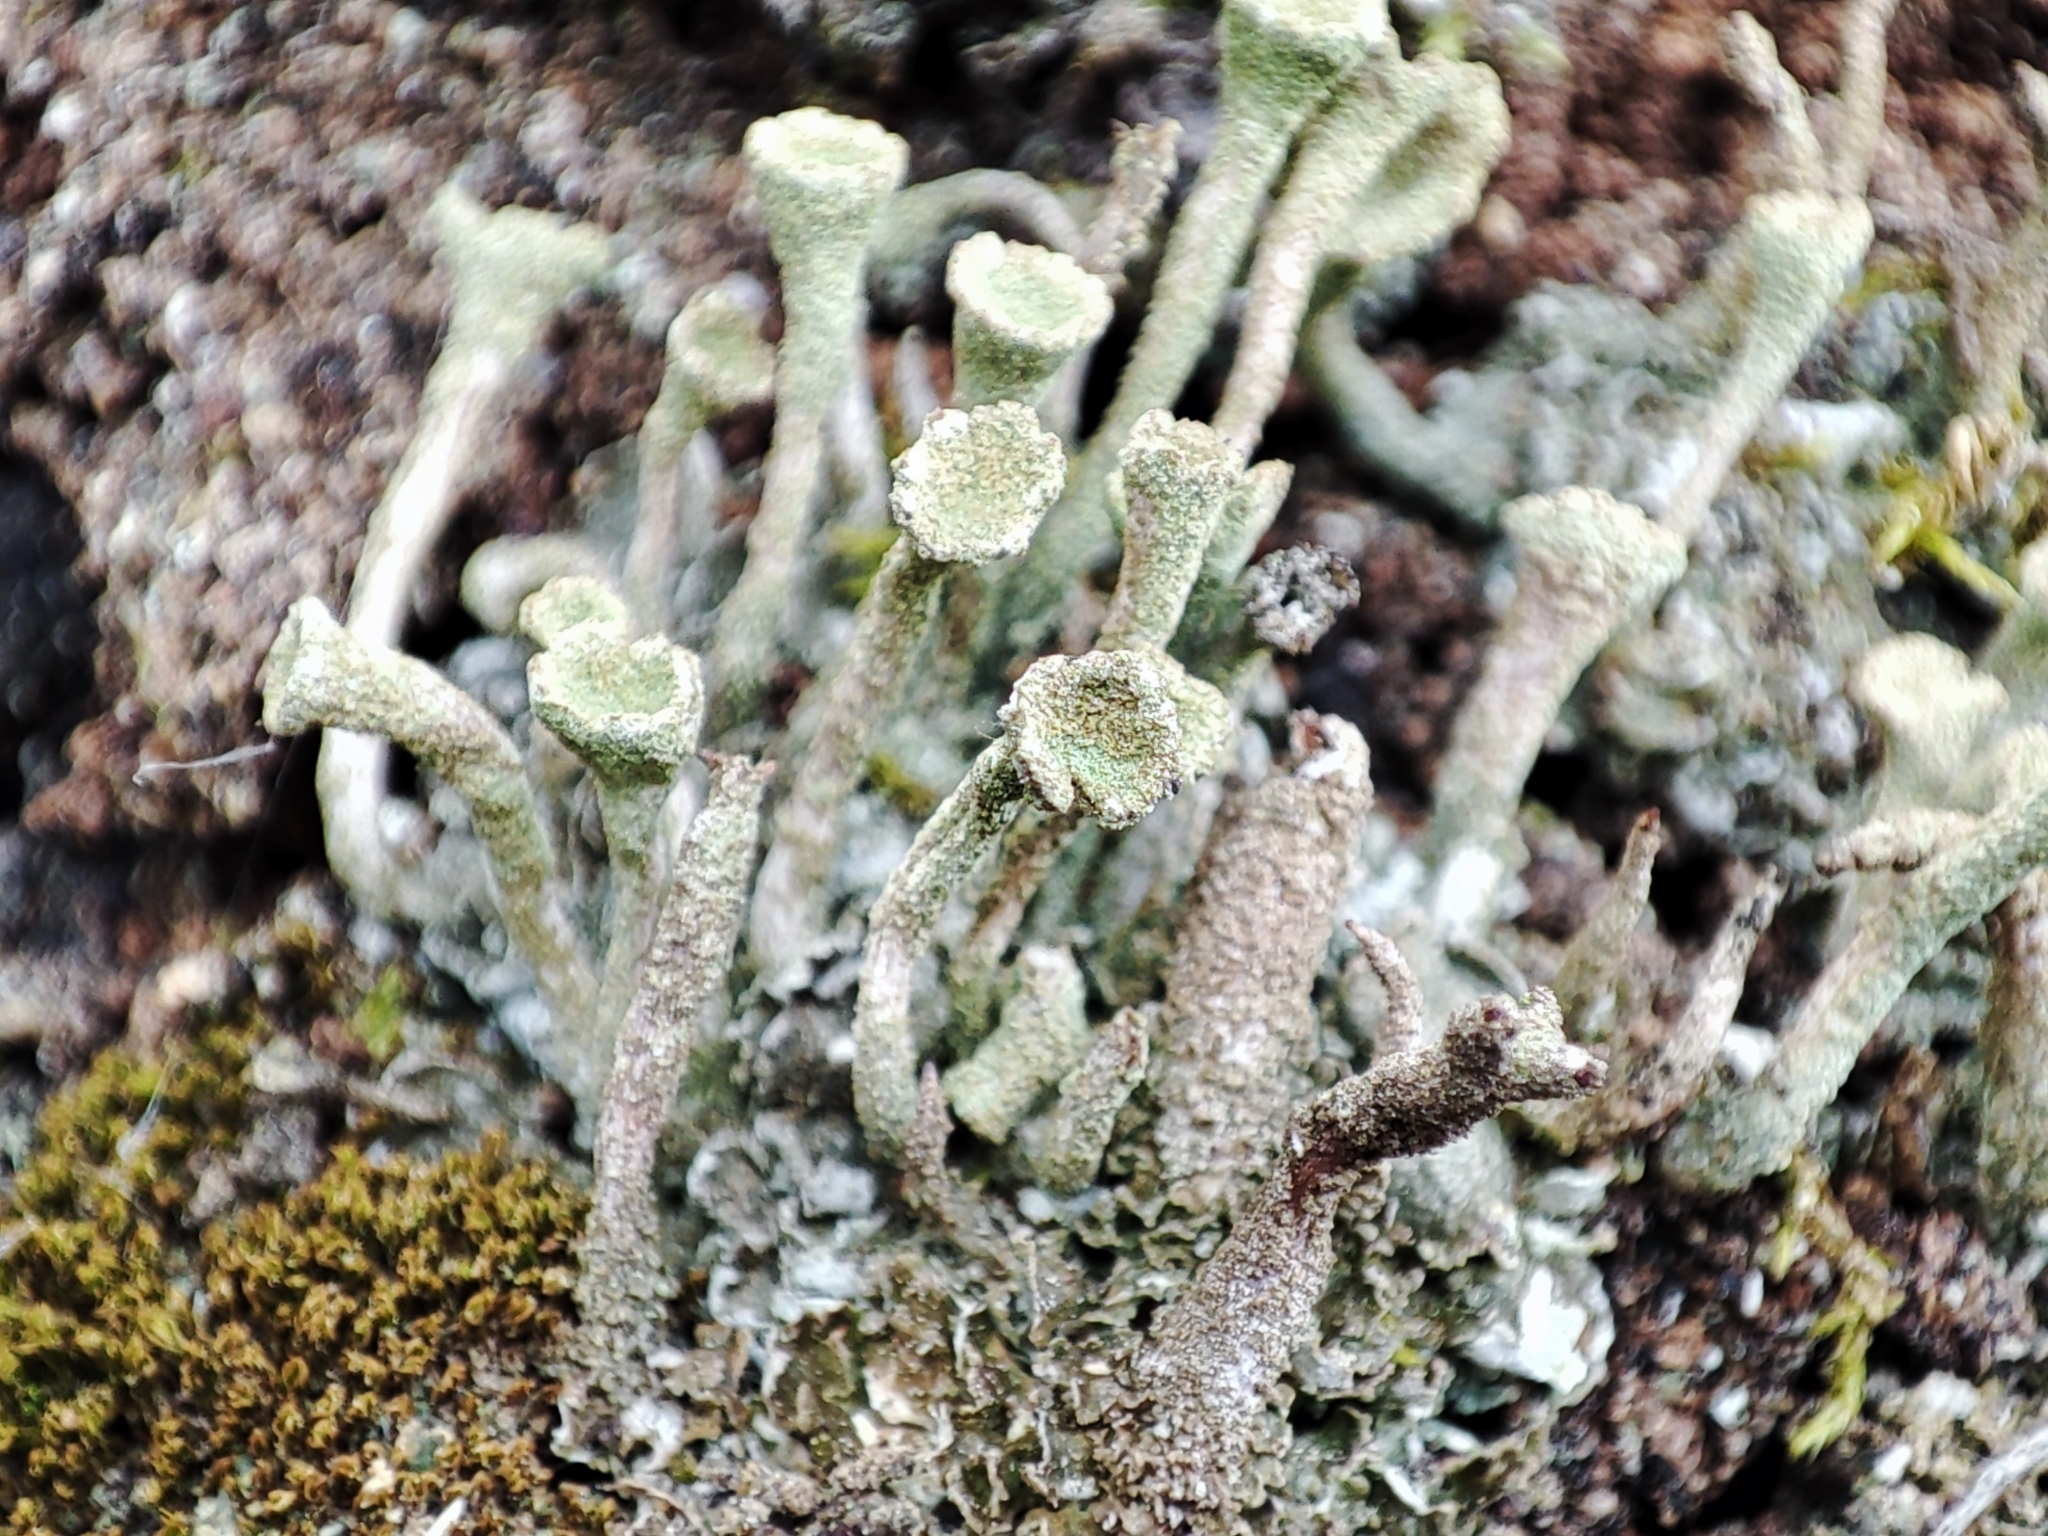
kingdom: Fungi
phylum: Ascomycota
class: Lecanoromycetes
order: Lecanorales
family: Cladoniaceae
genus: Cladonia
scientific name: Cladonia fimbriata
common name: Powdered trumpet lichen
